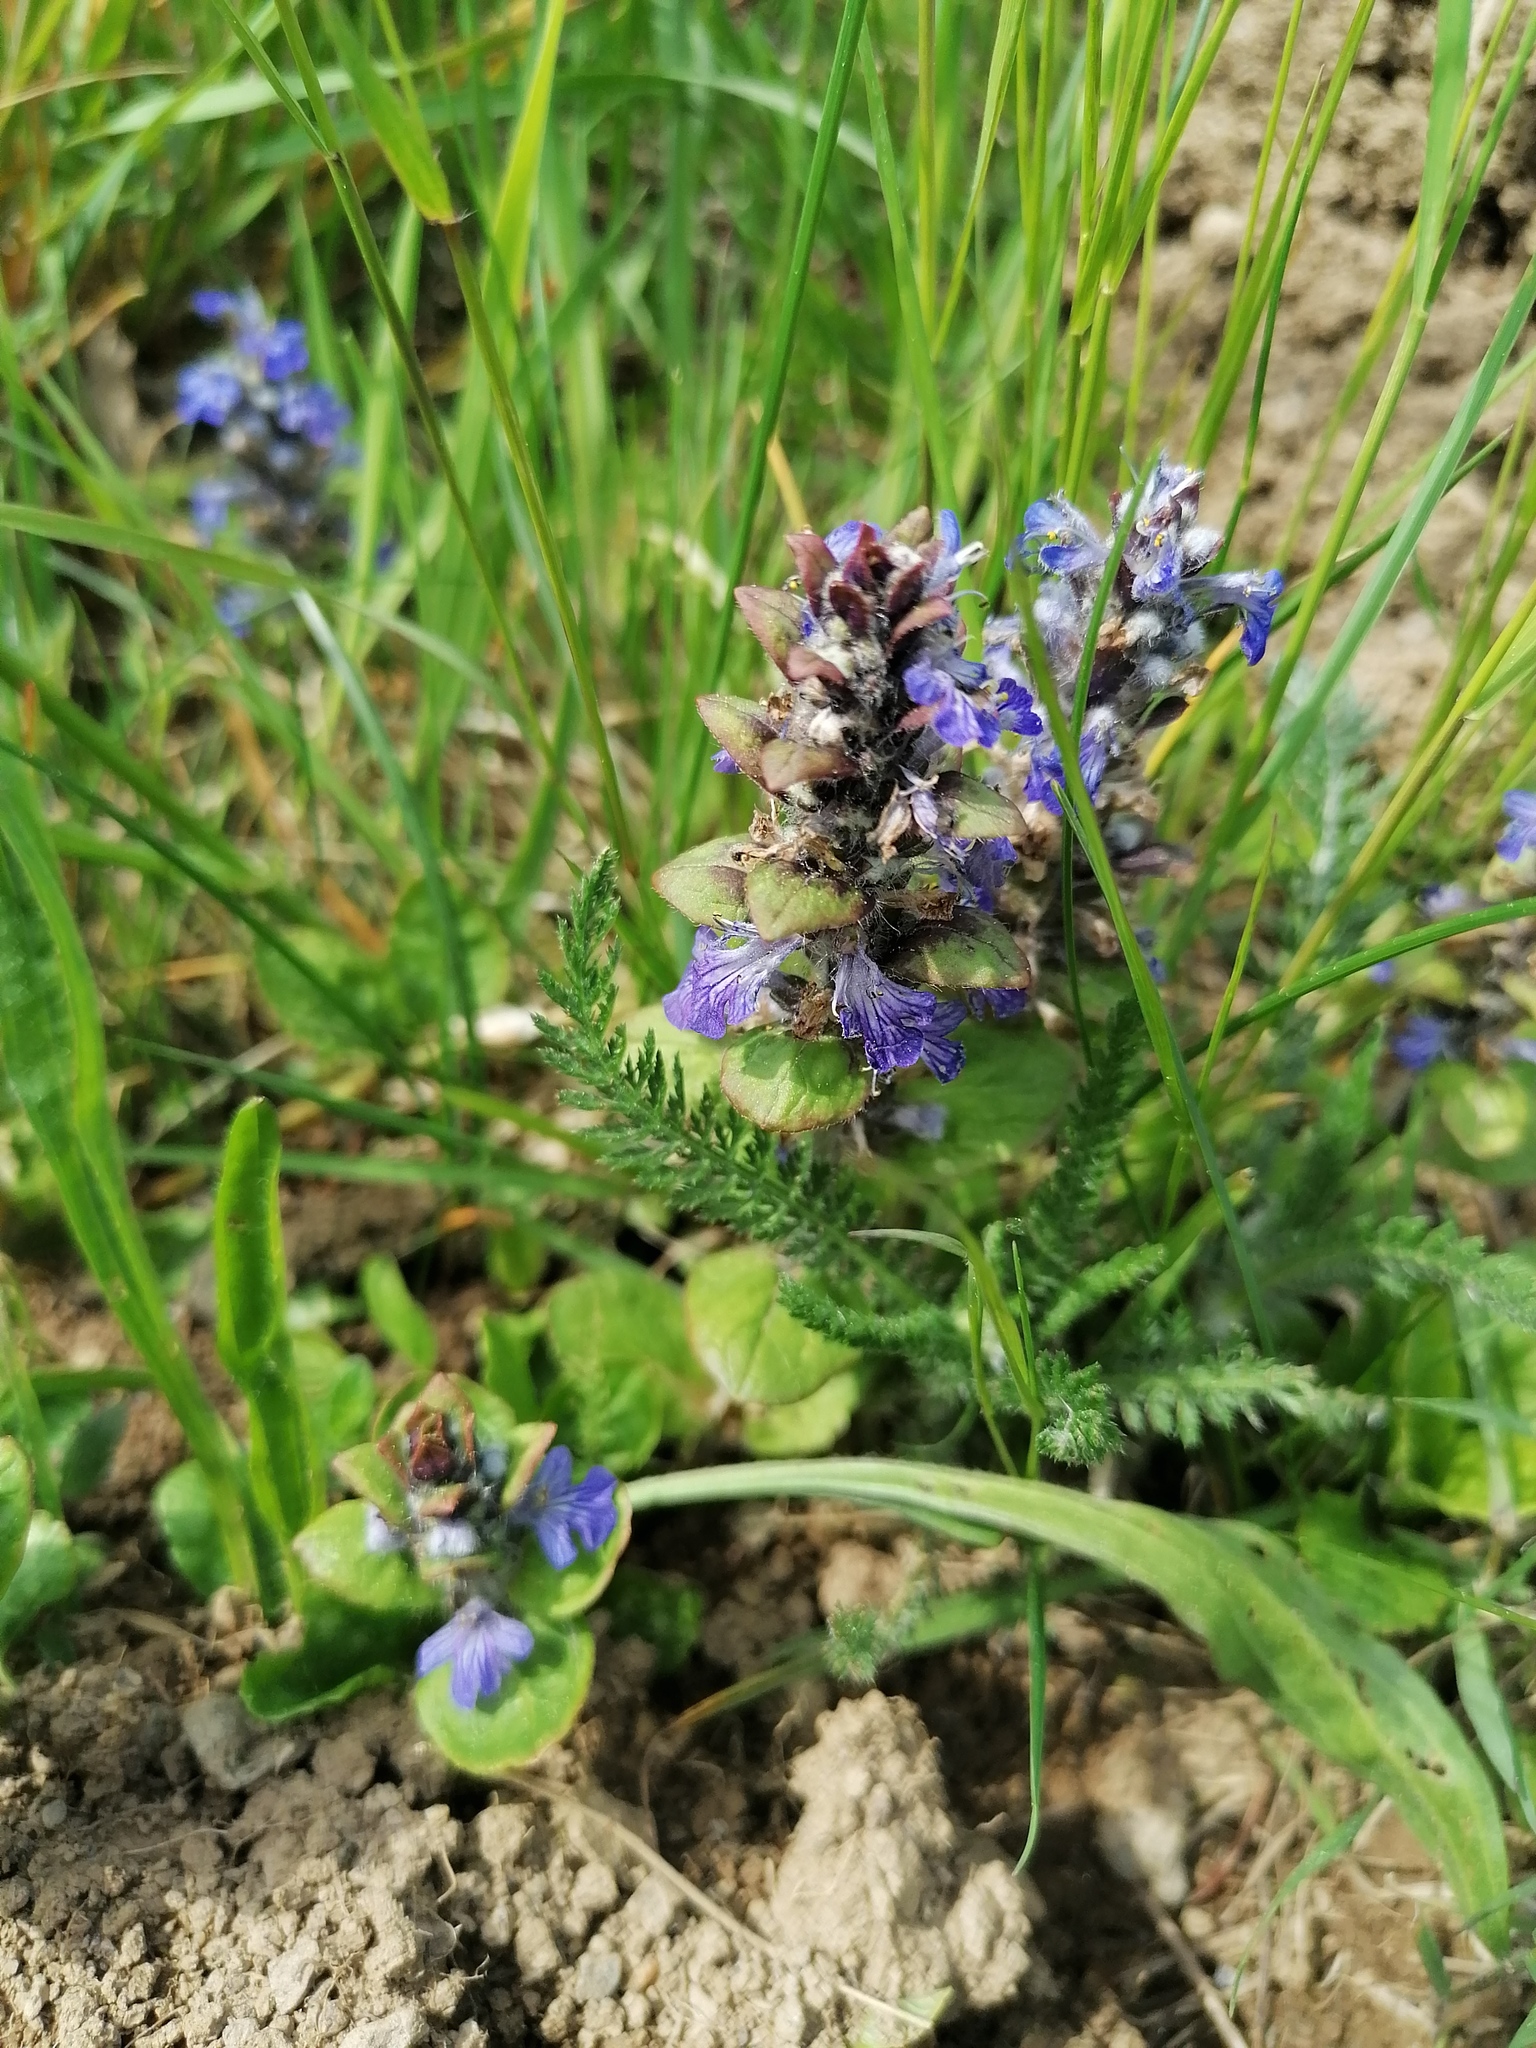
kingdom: Plantae
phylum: Tracheophyta
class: Magnoliopsida
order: Lamiales
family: Lamiaceae
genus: Ajuga
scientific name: Ajuga reptans
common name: Bugle
